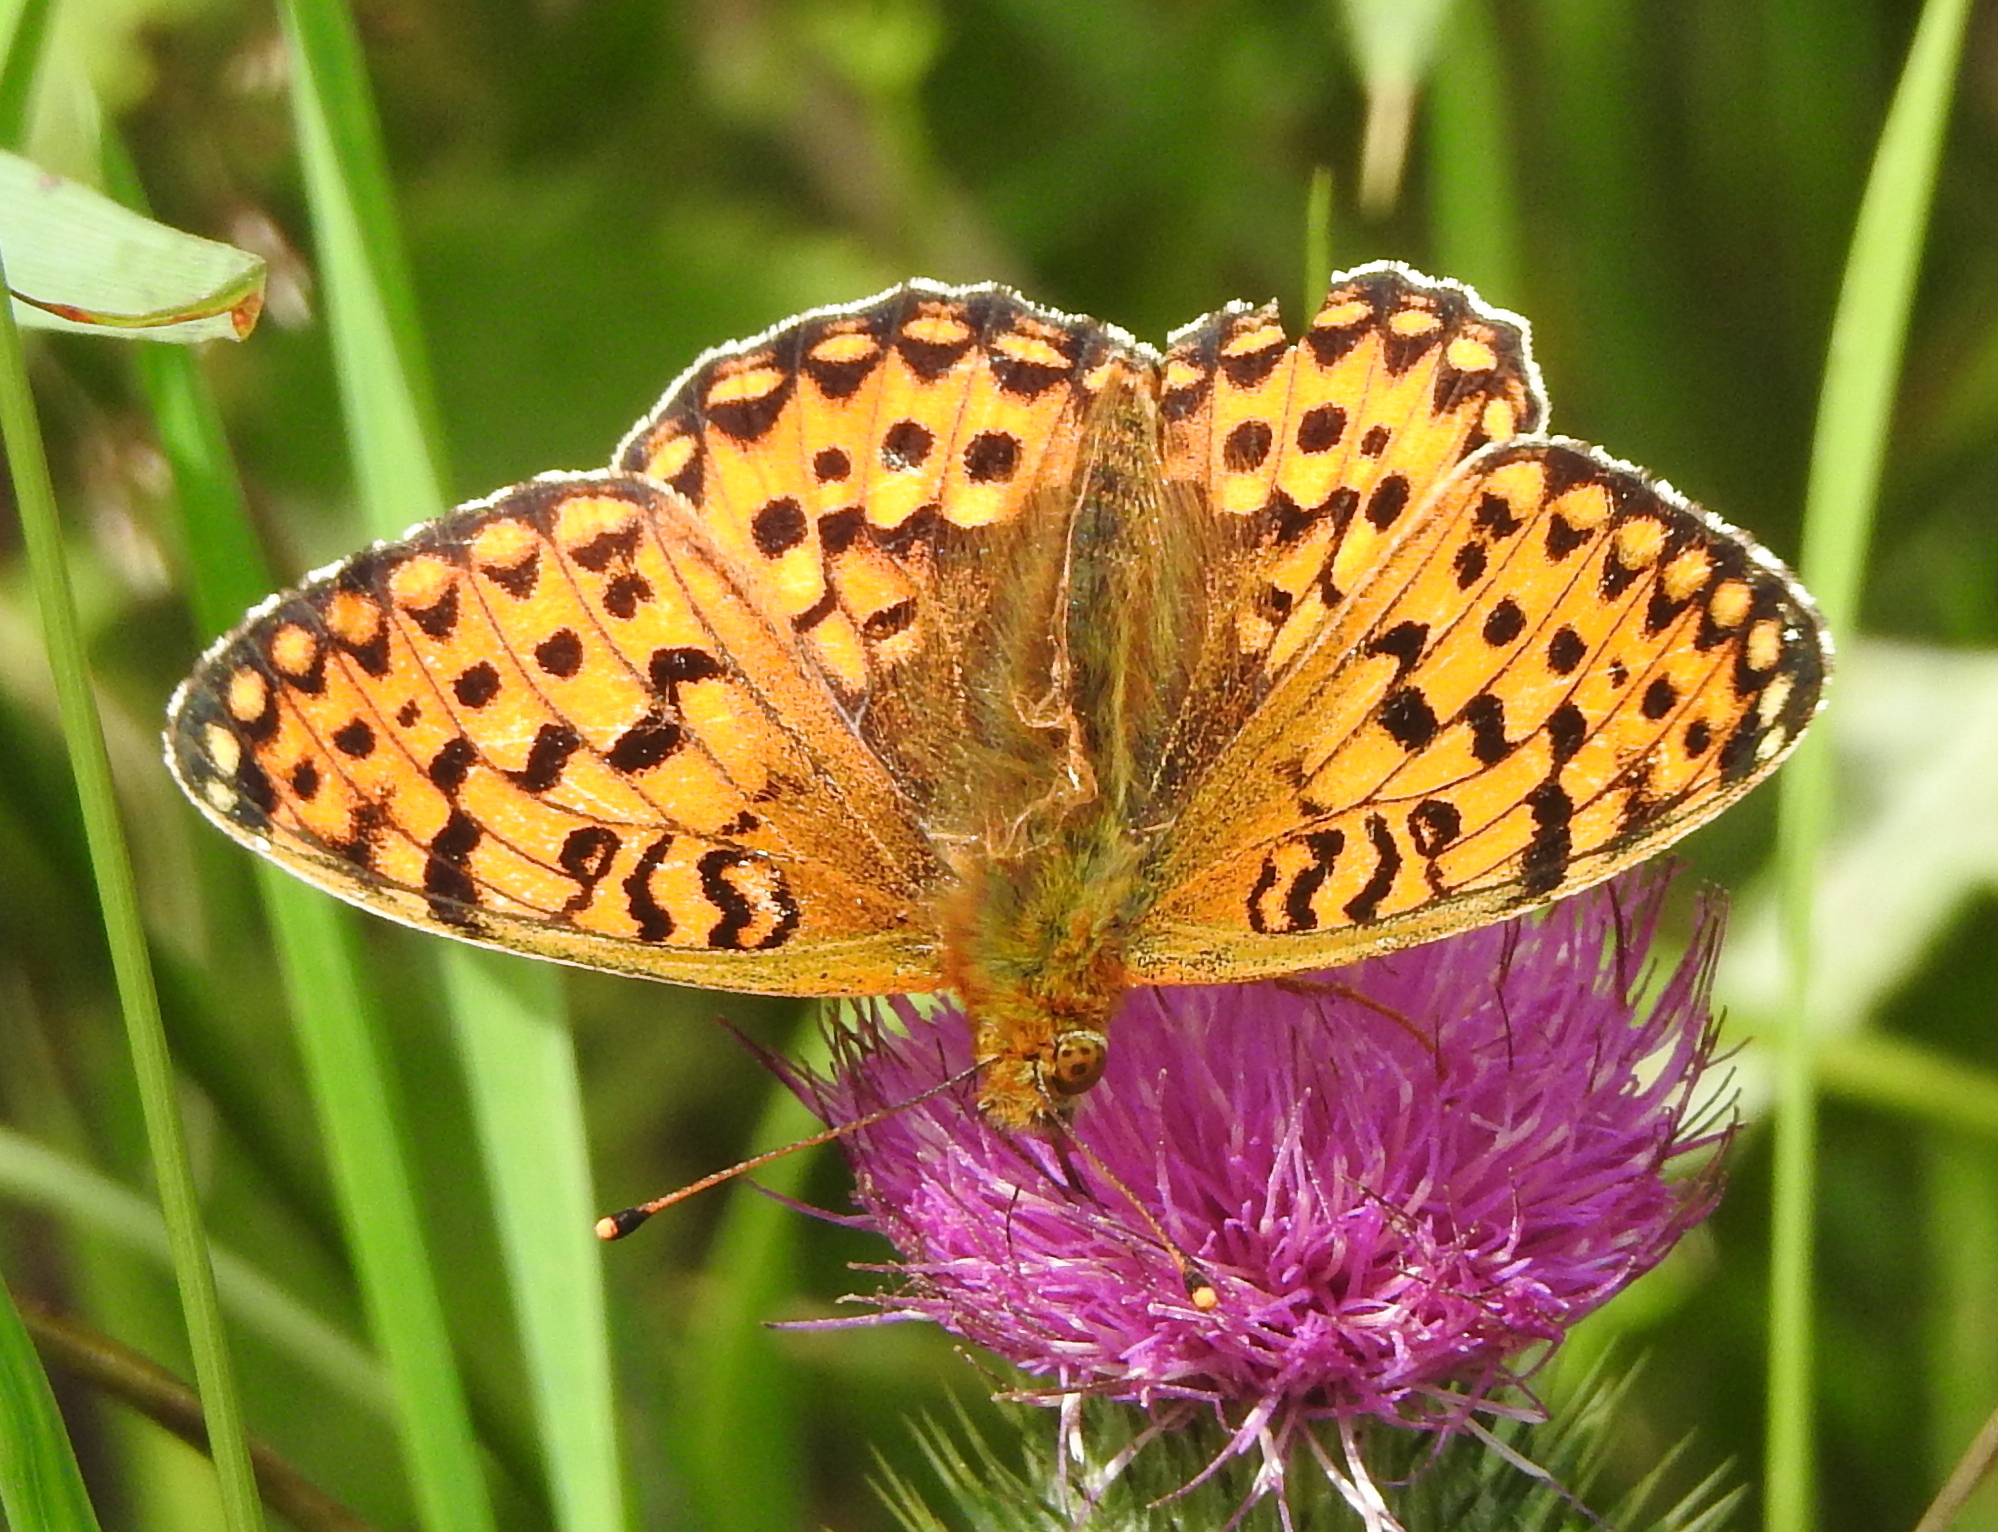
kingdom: Animalia
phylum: Arthropoda
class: Insecta
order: Lepidoptera
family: Nymphalidae
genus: Speyeria
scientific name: Speyeria aglaja
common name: Dark green fritillary
